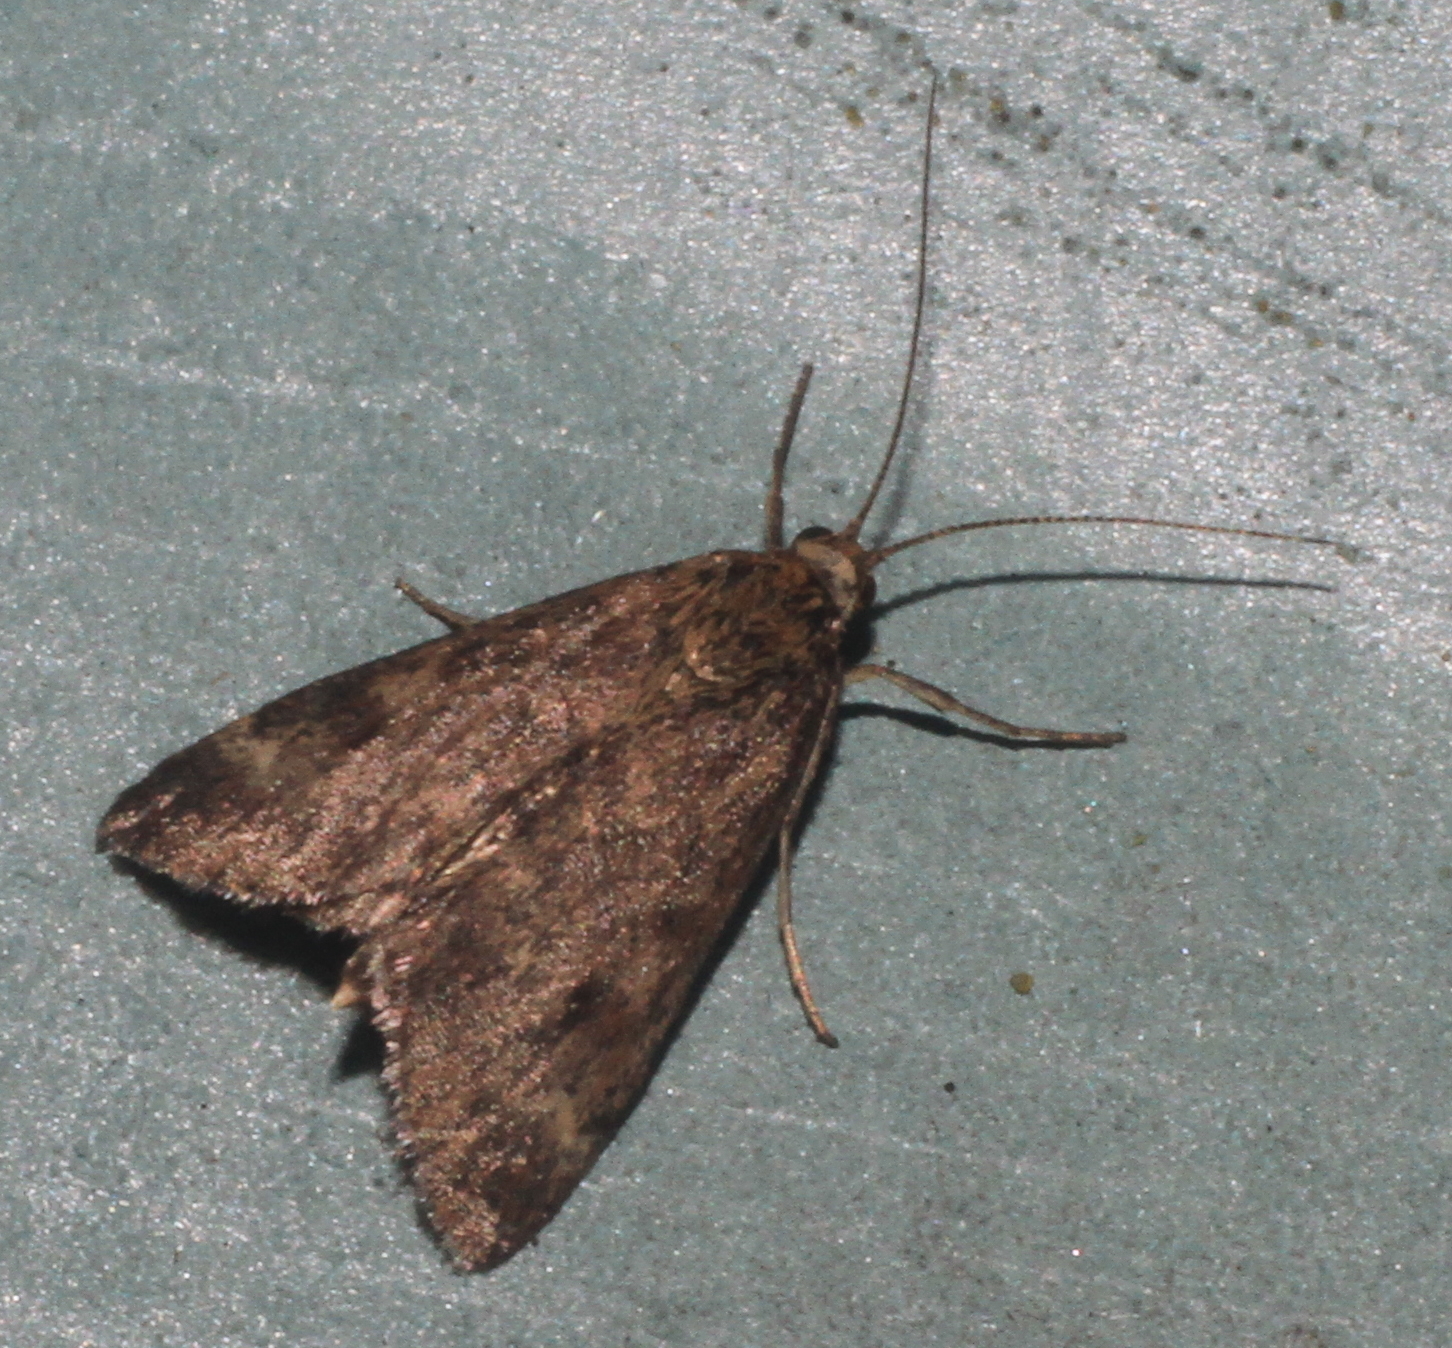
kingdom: Animalia
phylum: Arthropoda
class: Insecta
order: Lepidoptera
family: Crambidae
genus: Pyrausta
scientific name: Pyrausta despicata
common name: Straw-barred pearl
